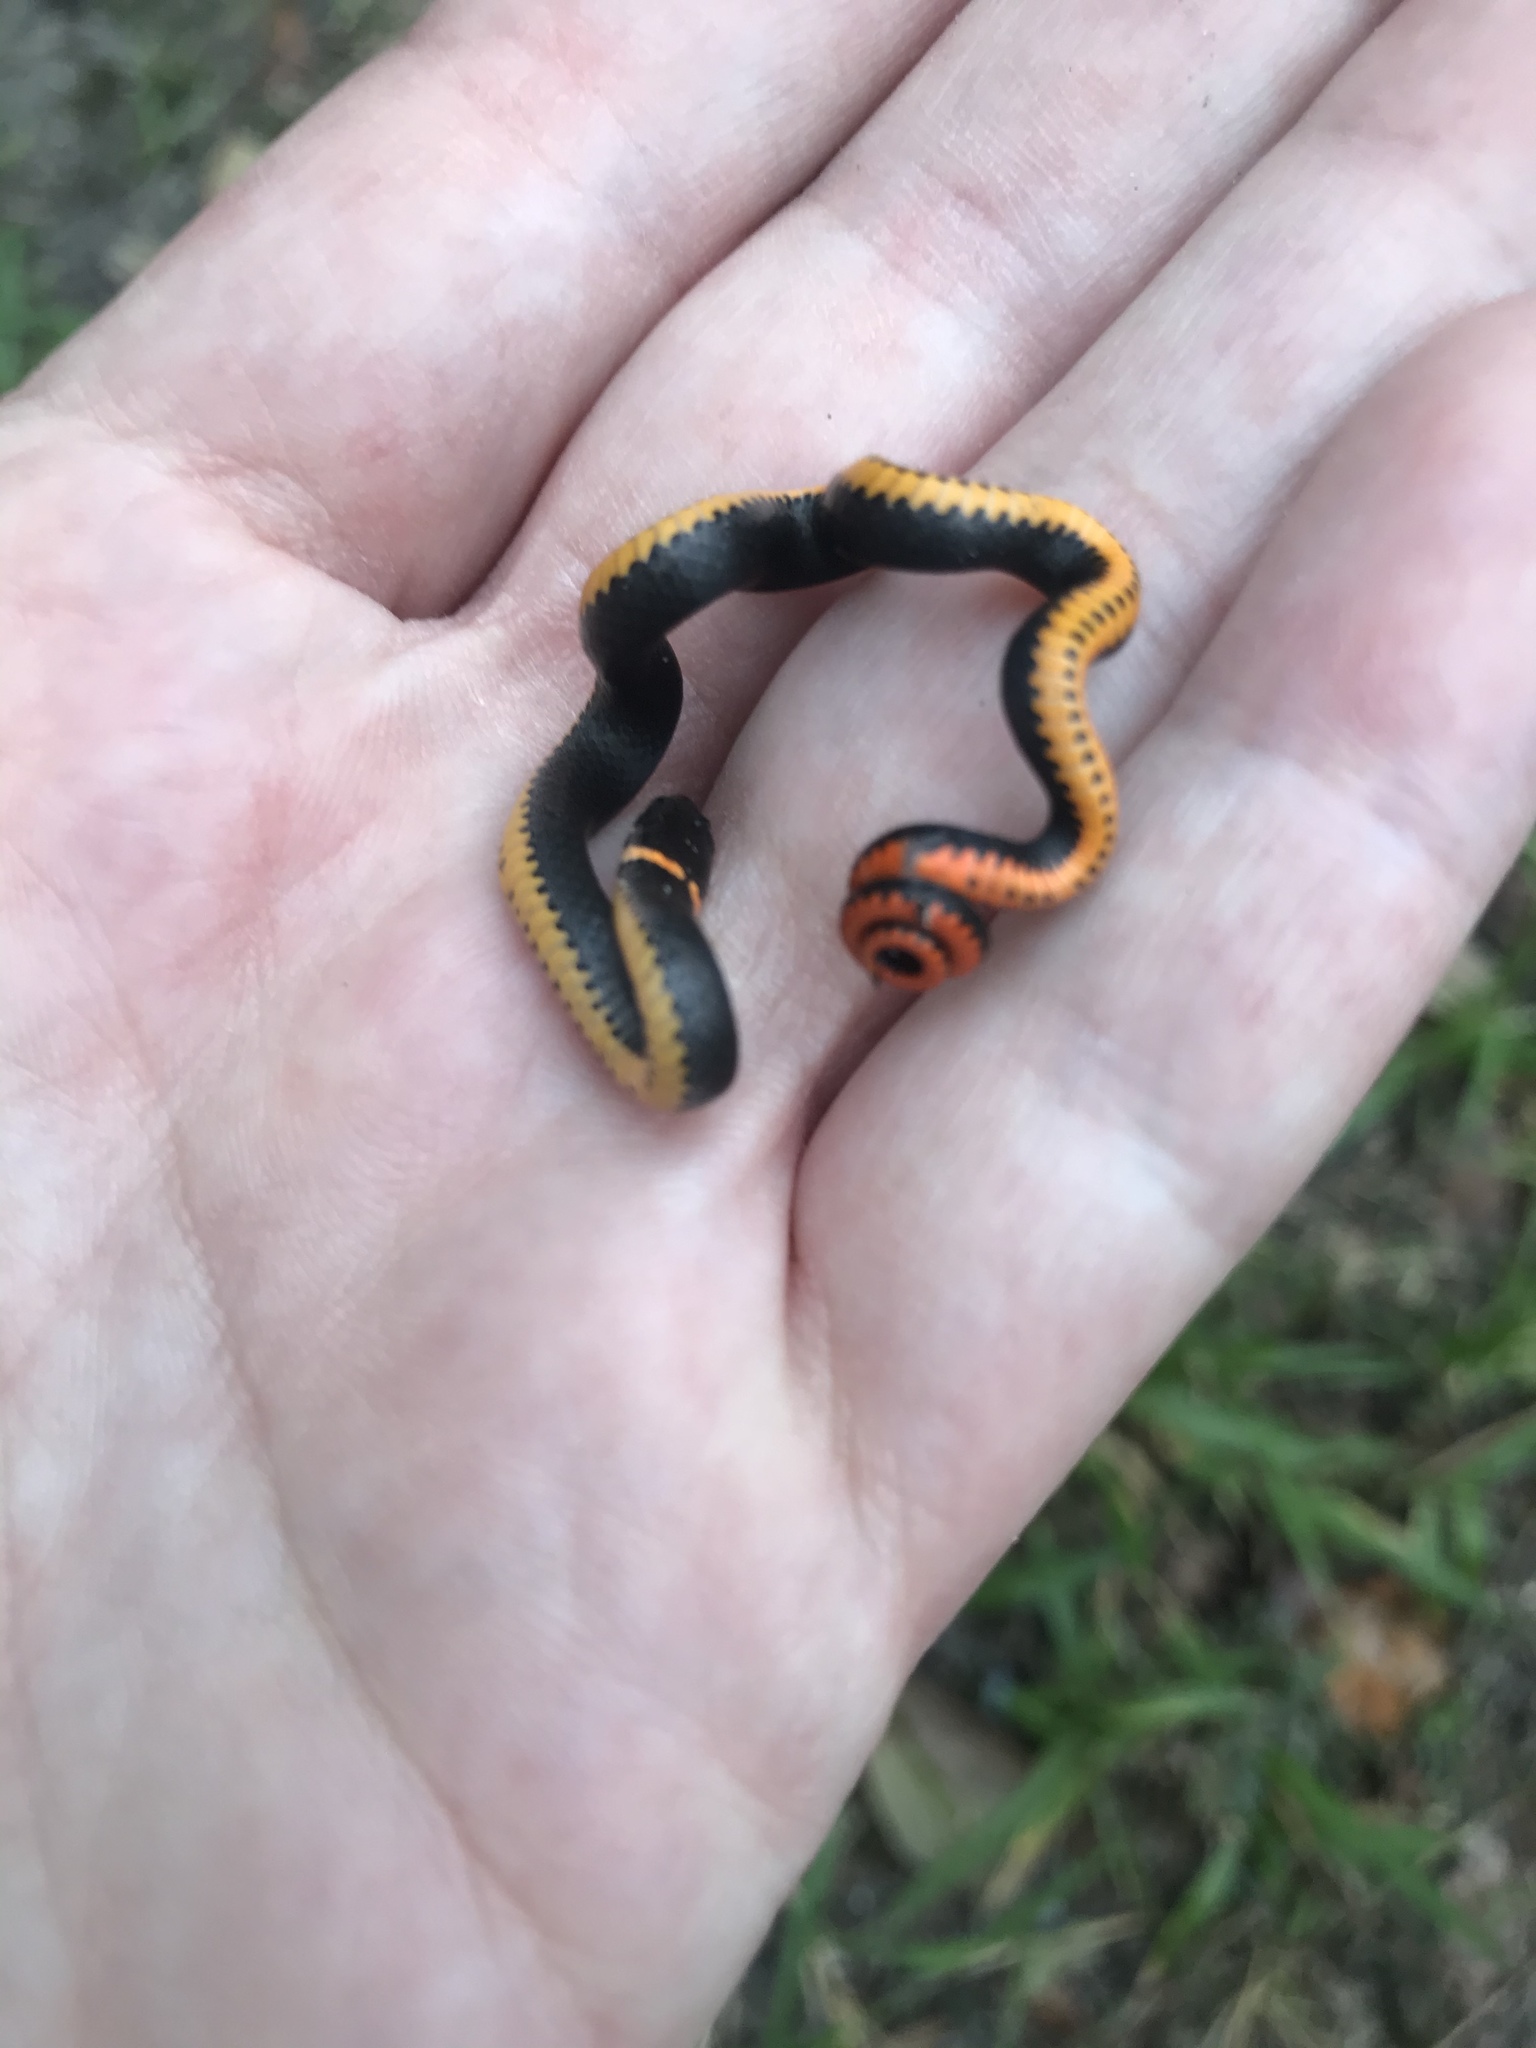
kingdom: Animalia
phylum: Chordata
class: Squamata
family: Colubridae
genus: Diadophis
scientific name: Diadophis punctatus
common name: Ringneck snake
